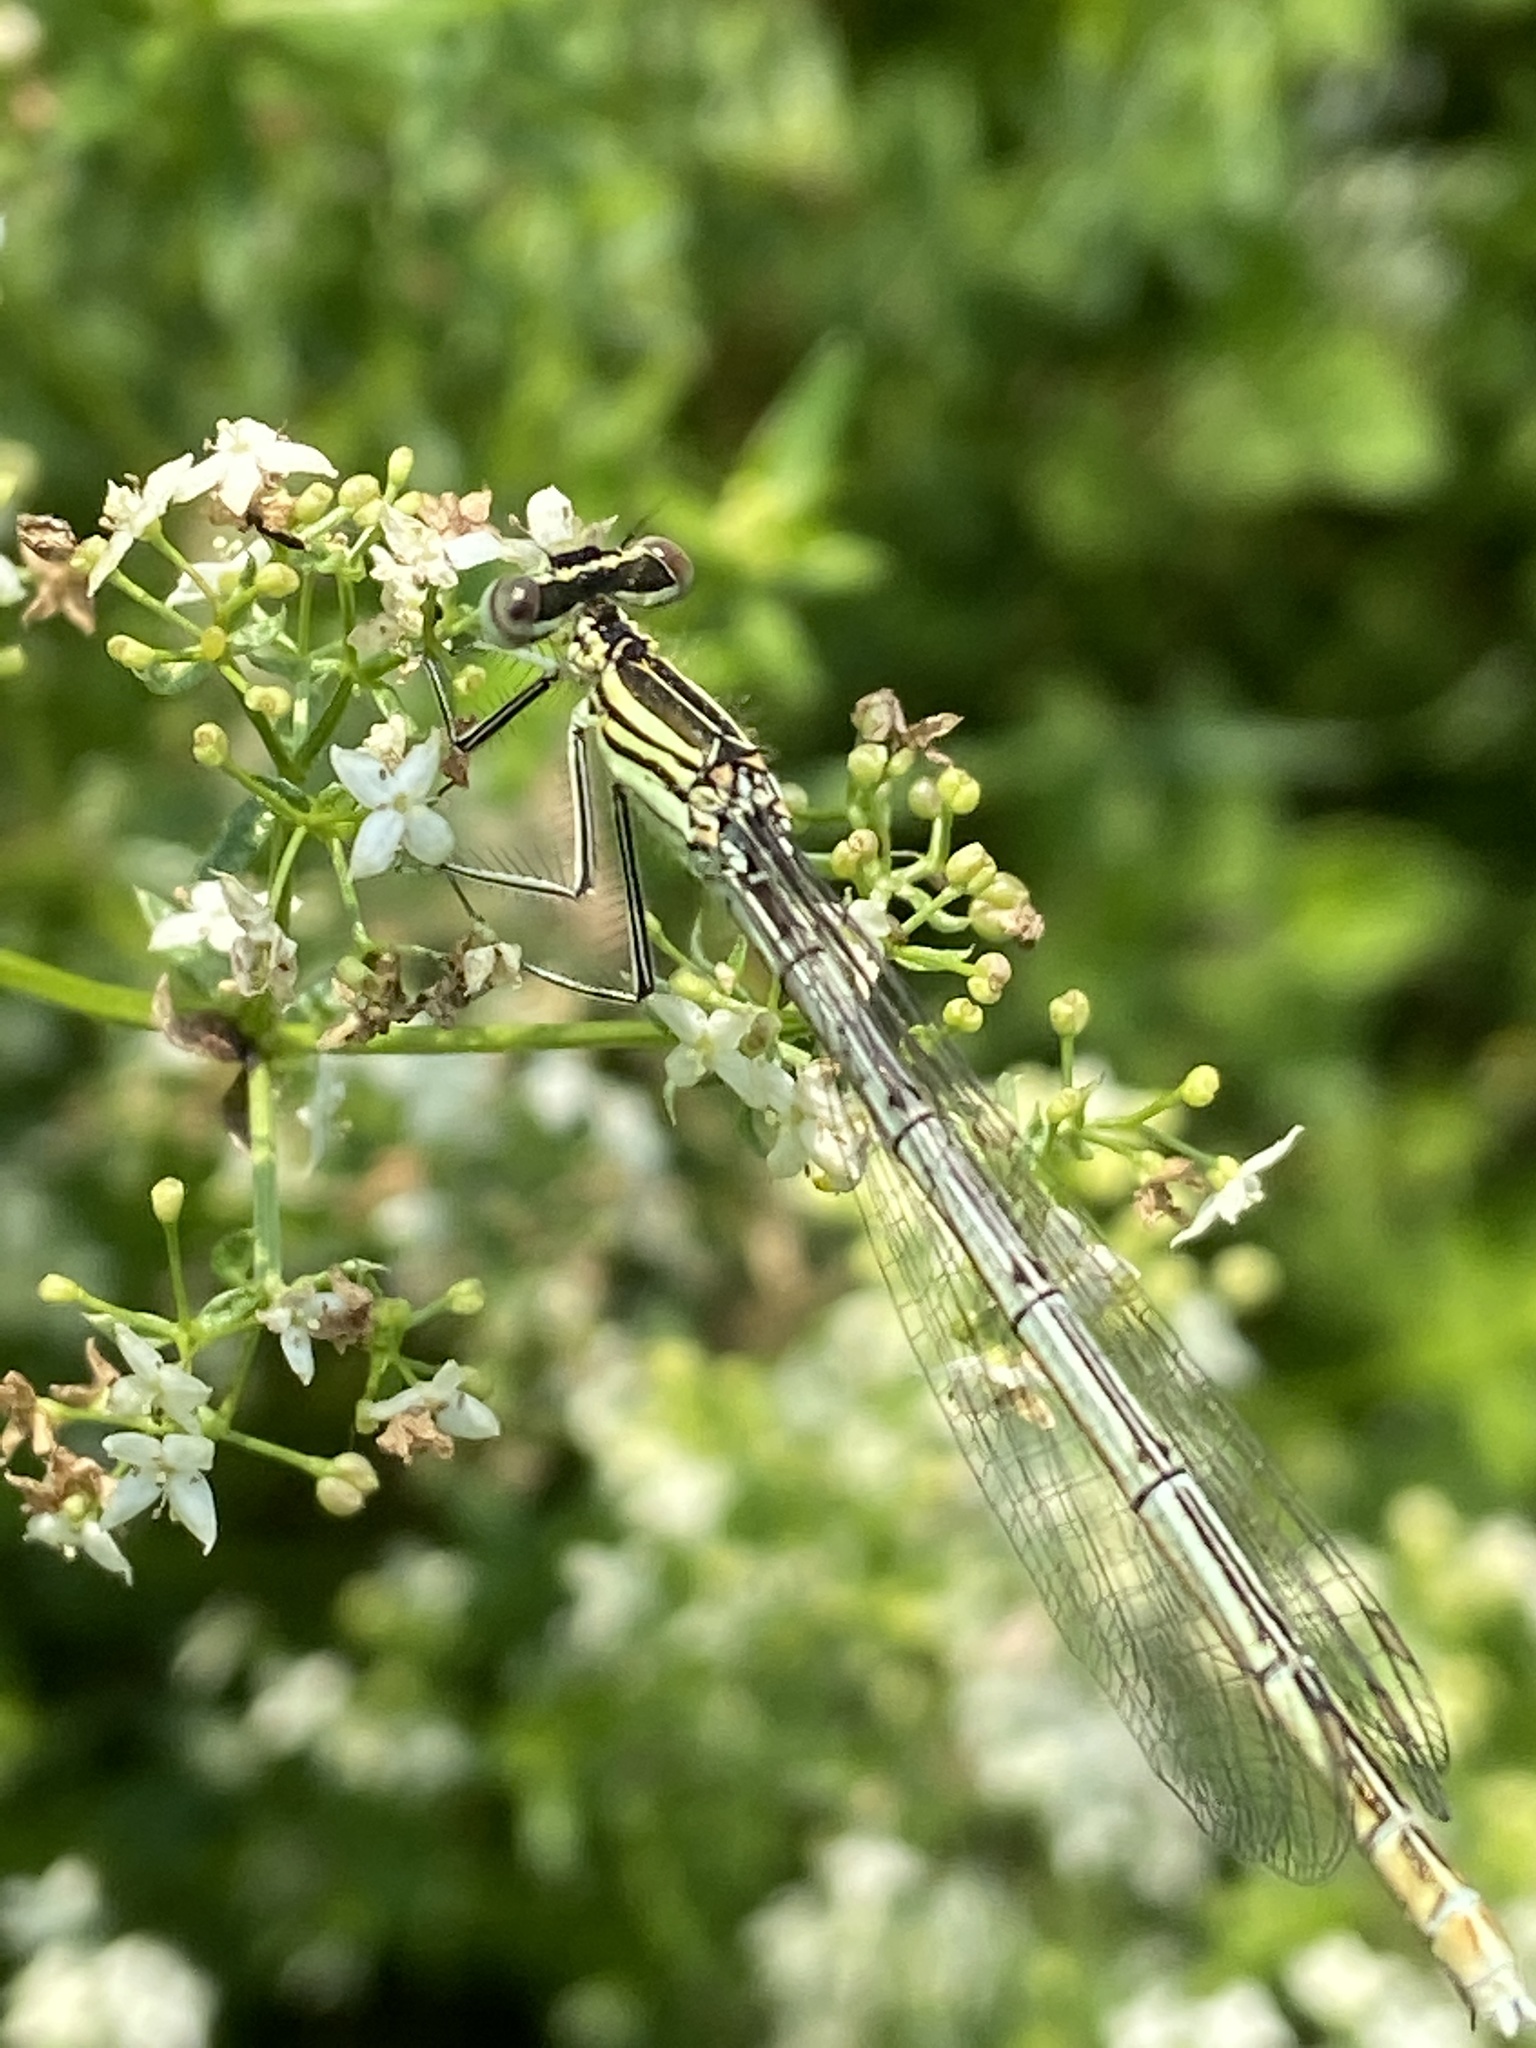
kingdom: Animalia
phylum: Arthropoda
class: Insecta
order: Odonata
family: Platycnemididae
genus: Platycnemis
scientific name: Platycnemis pennipes
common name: White-legged damselfly
